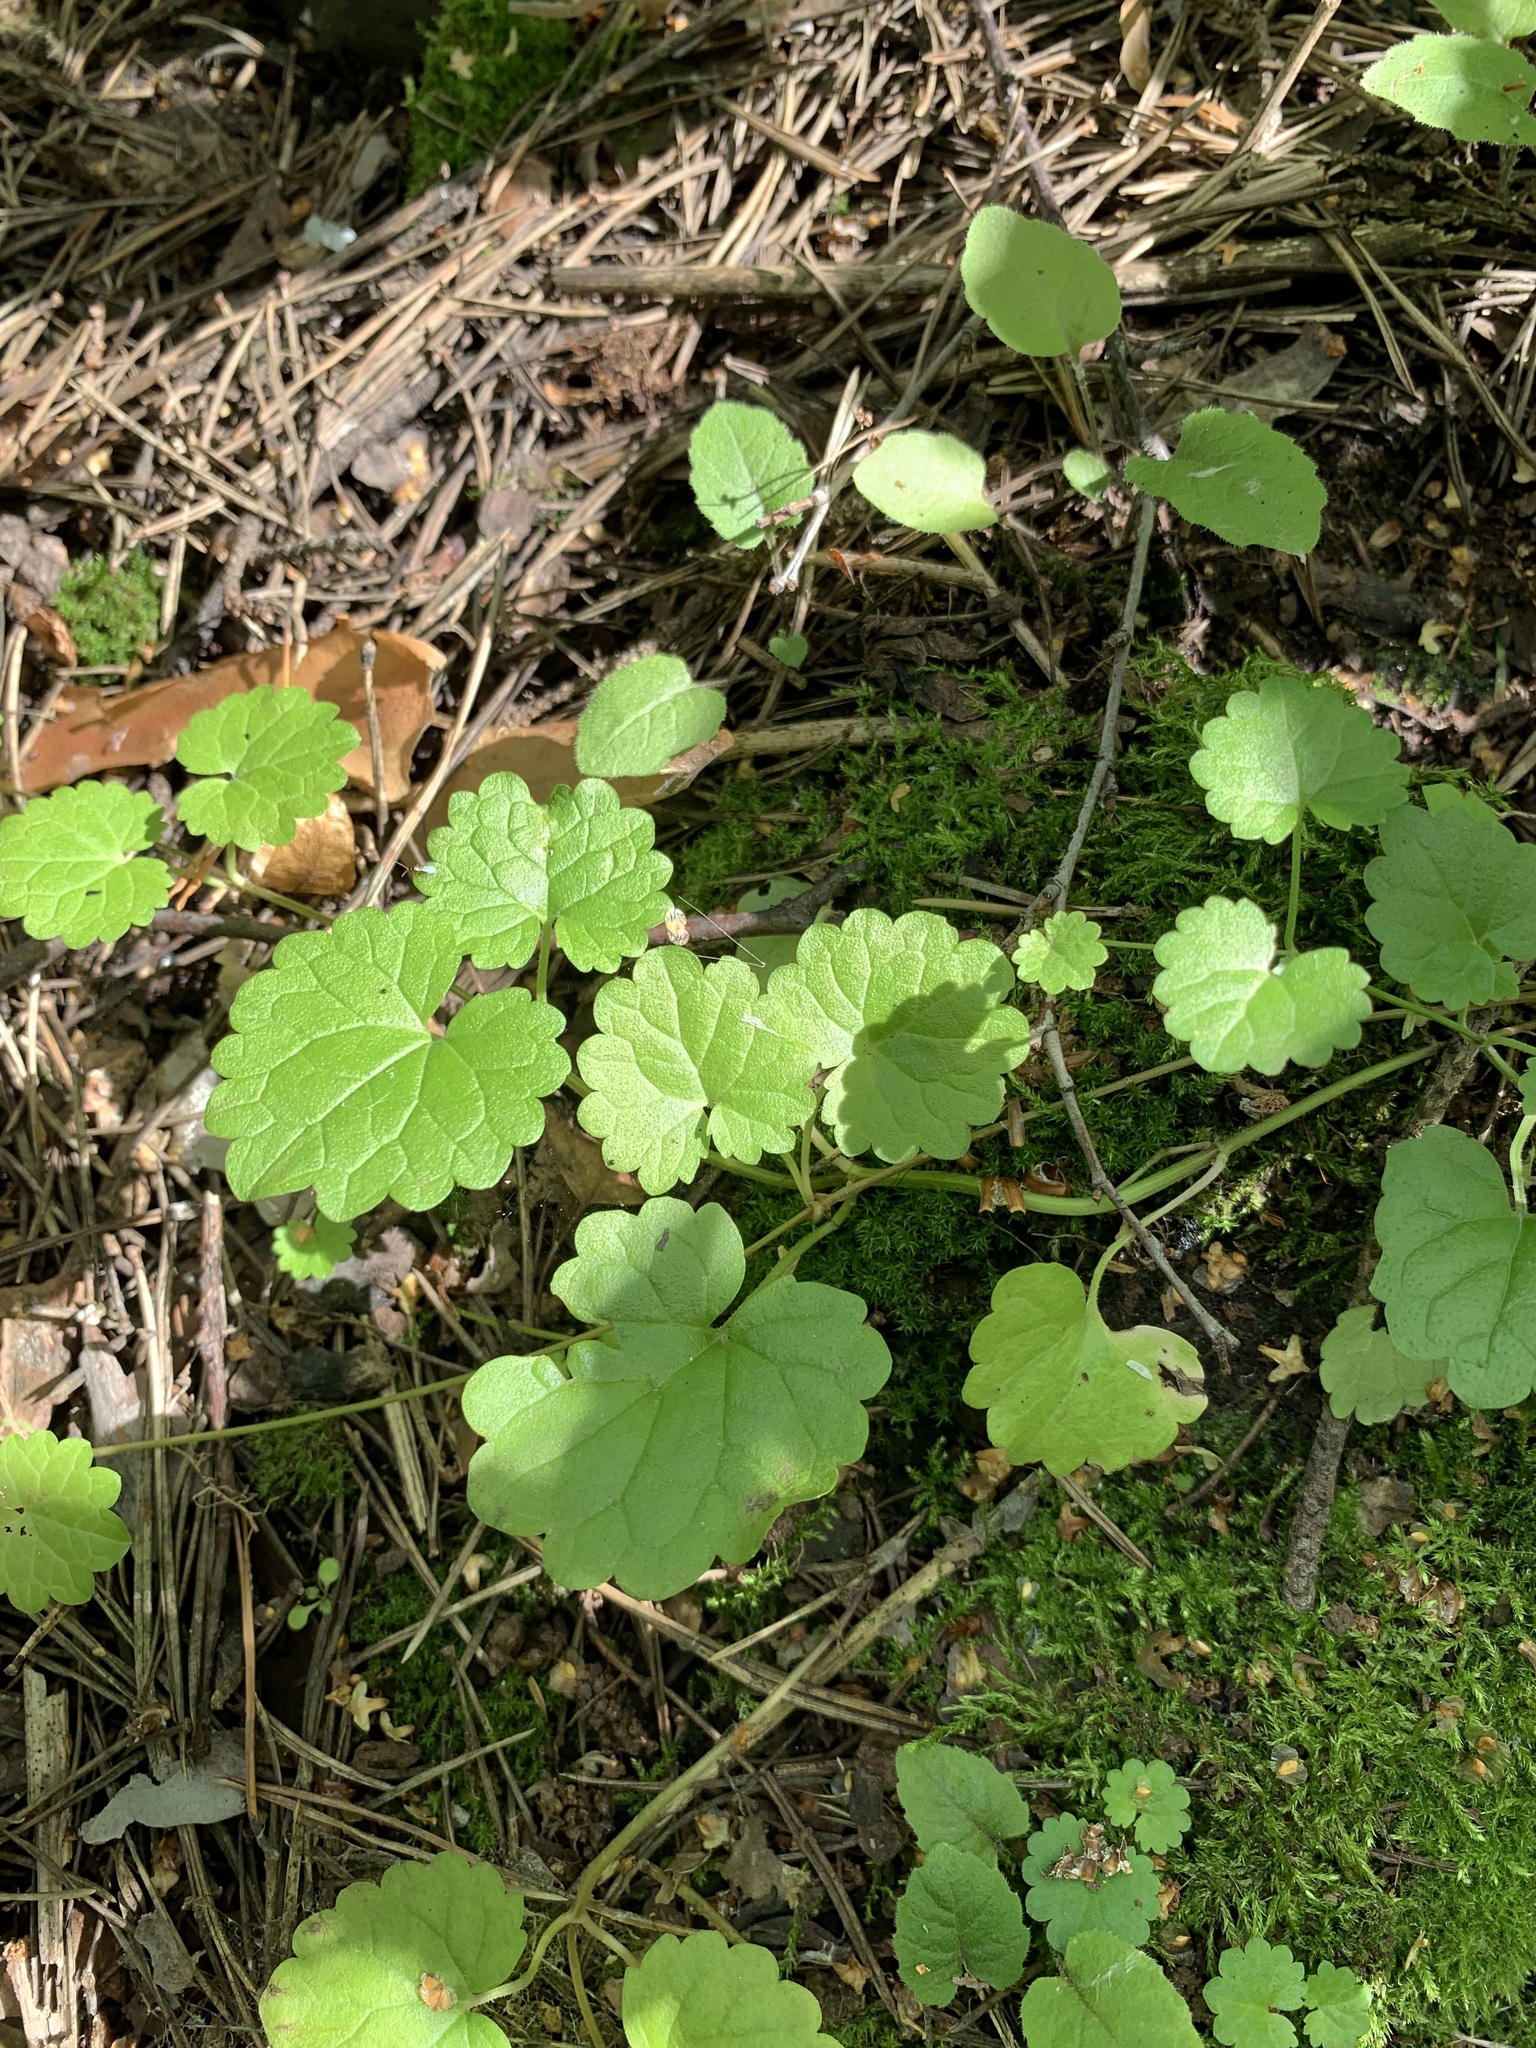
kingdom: Plantae
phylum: Tracheophyta
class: Magnoliopsida
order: Lamiales
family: Lamiaceae
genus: Glechoma
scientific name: Glechoma hederacea
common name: Ground ivy
